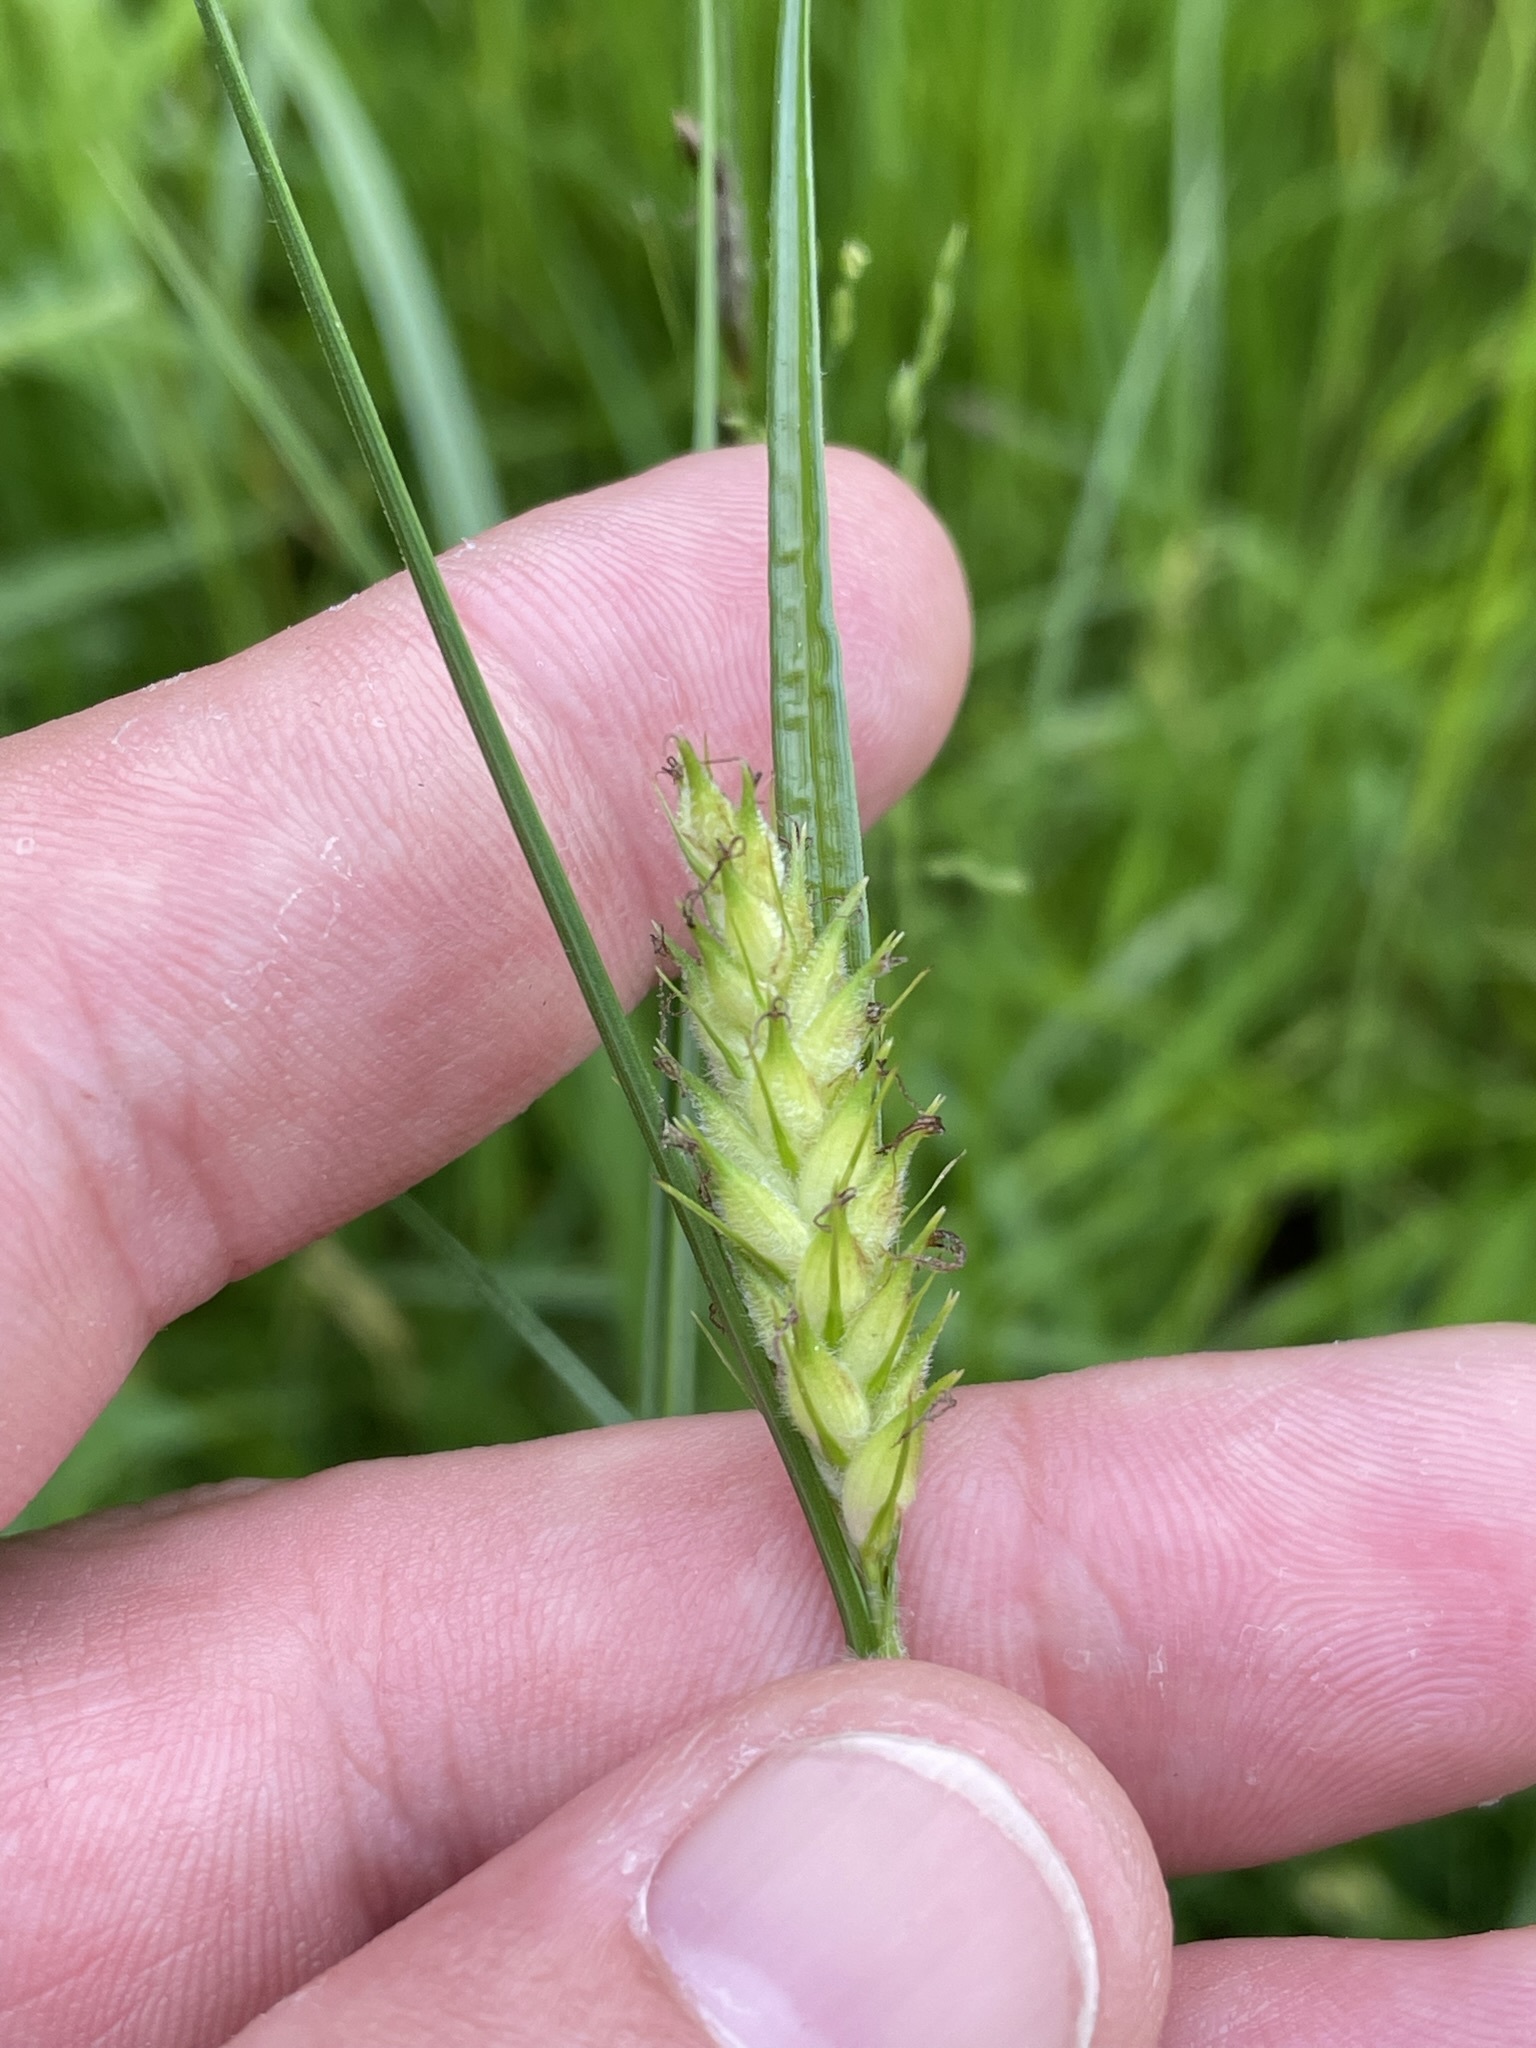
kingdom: Plantae
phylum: Tracheophyta
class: Liliopsida
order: Poales
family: Cyperaceae
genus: Carex
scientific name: Carex hirta
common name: Hairy sedge
